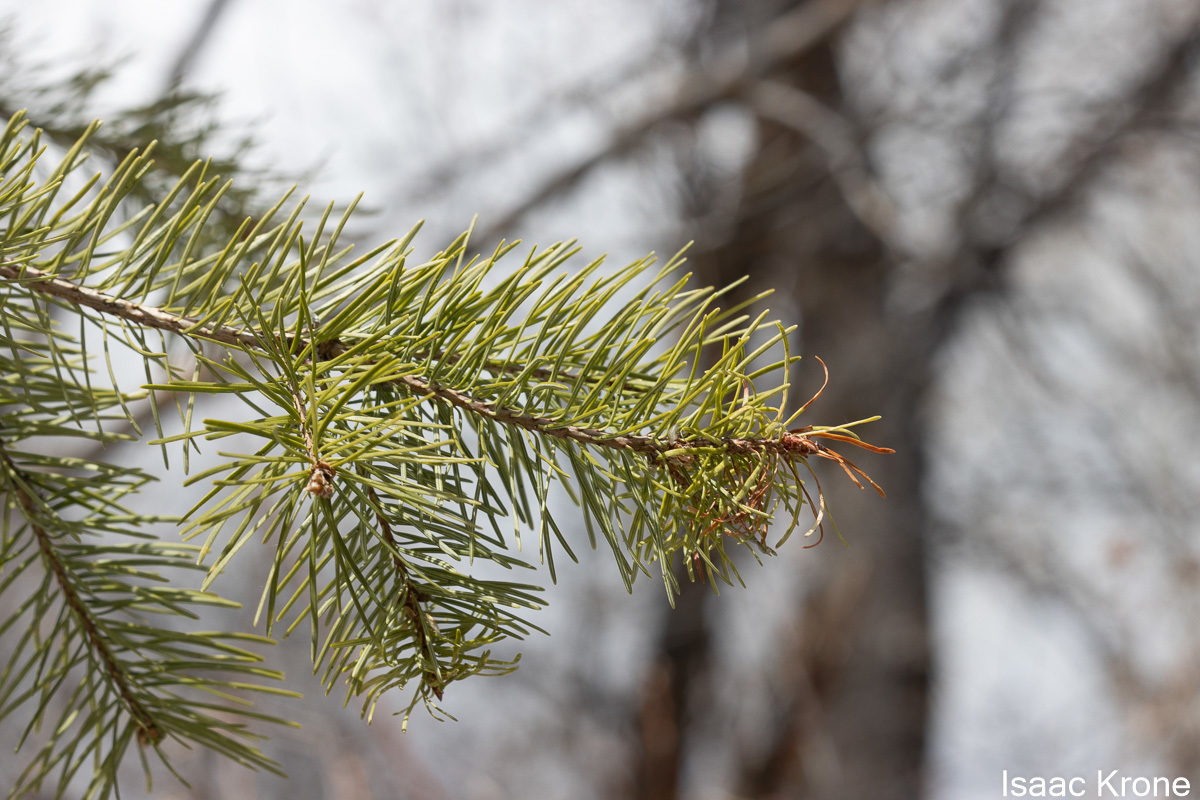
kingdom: Plantae
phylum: Tracheophyta
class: Pinopsida
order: Pinales
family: Pinaceae
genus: Pseudotsuga
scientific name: Pseudotsuga menziesii
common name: Douglas fir
